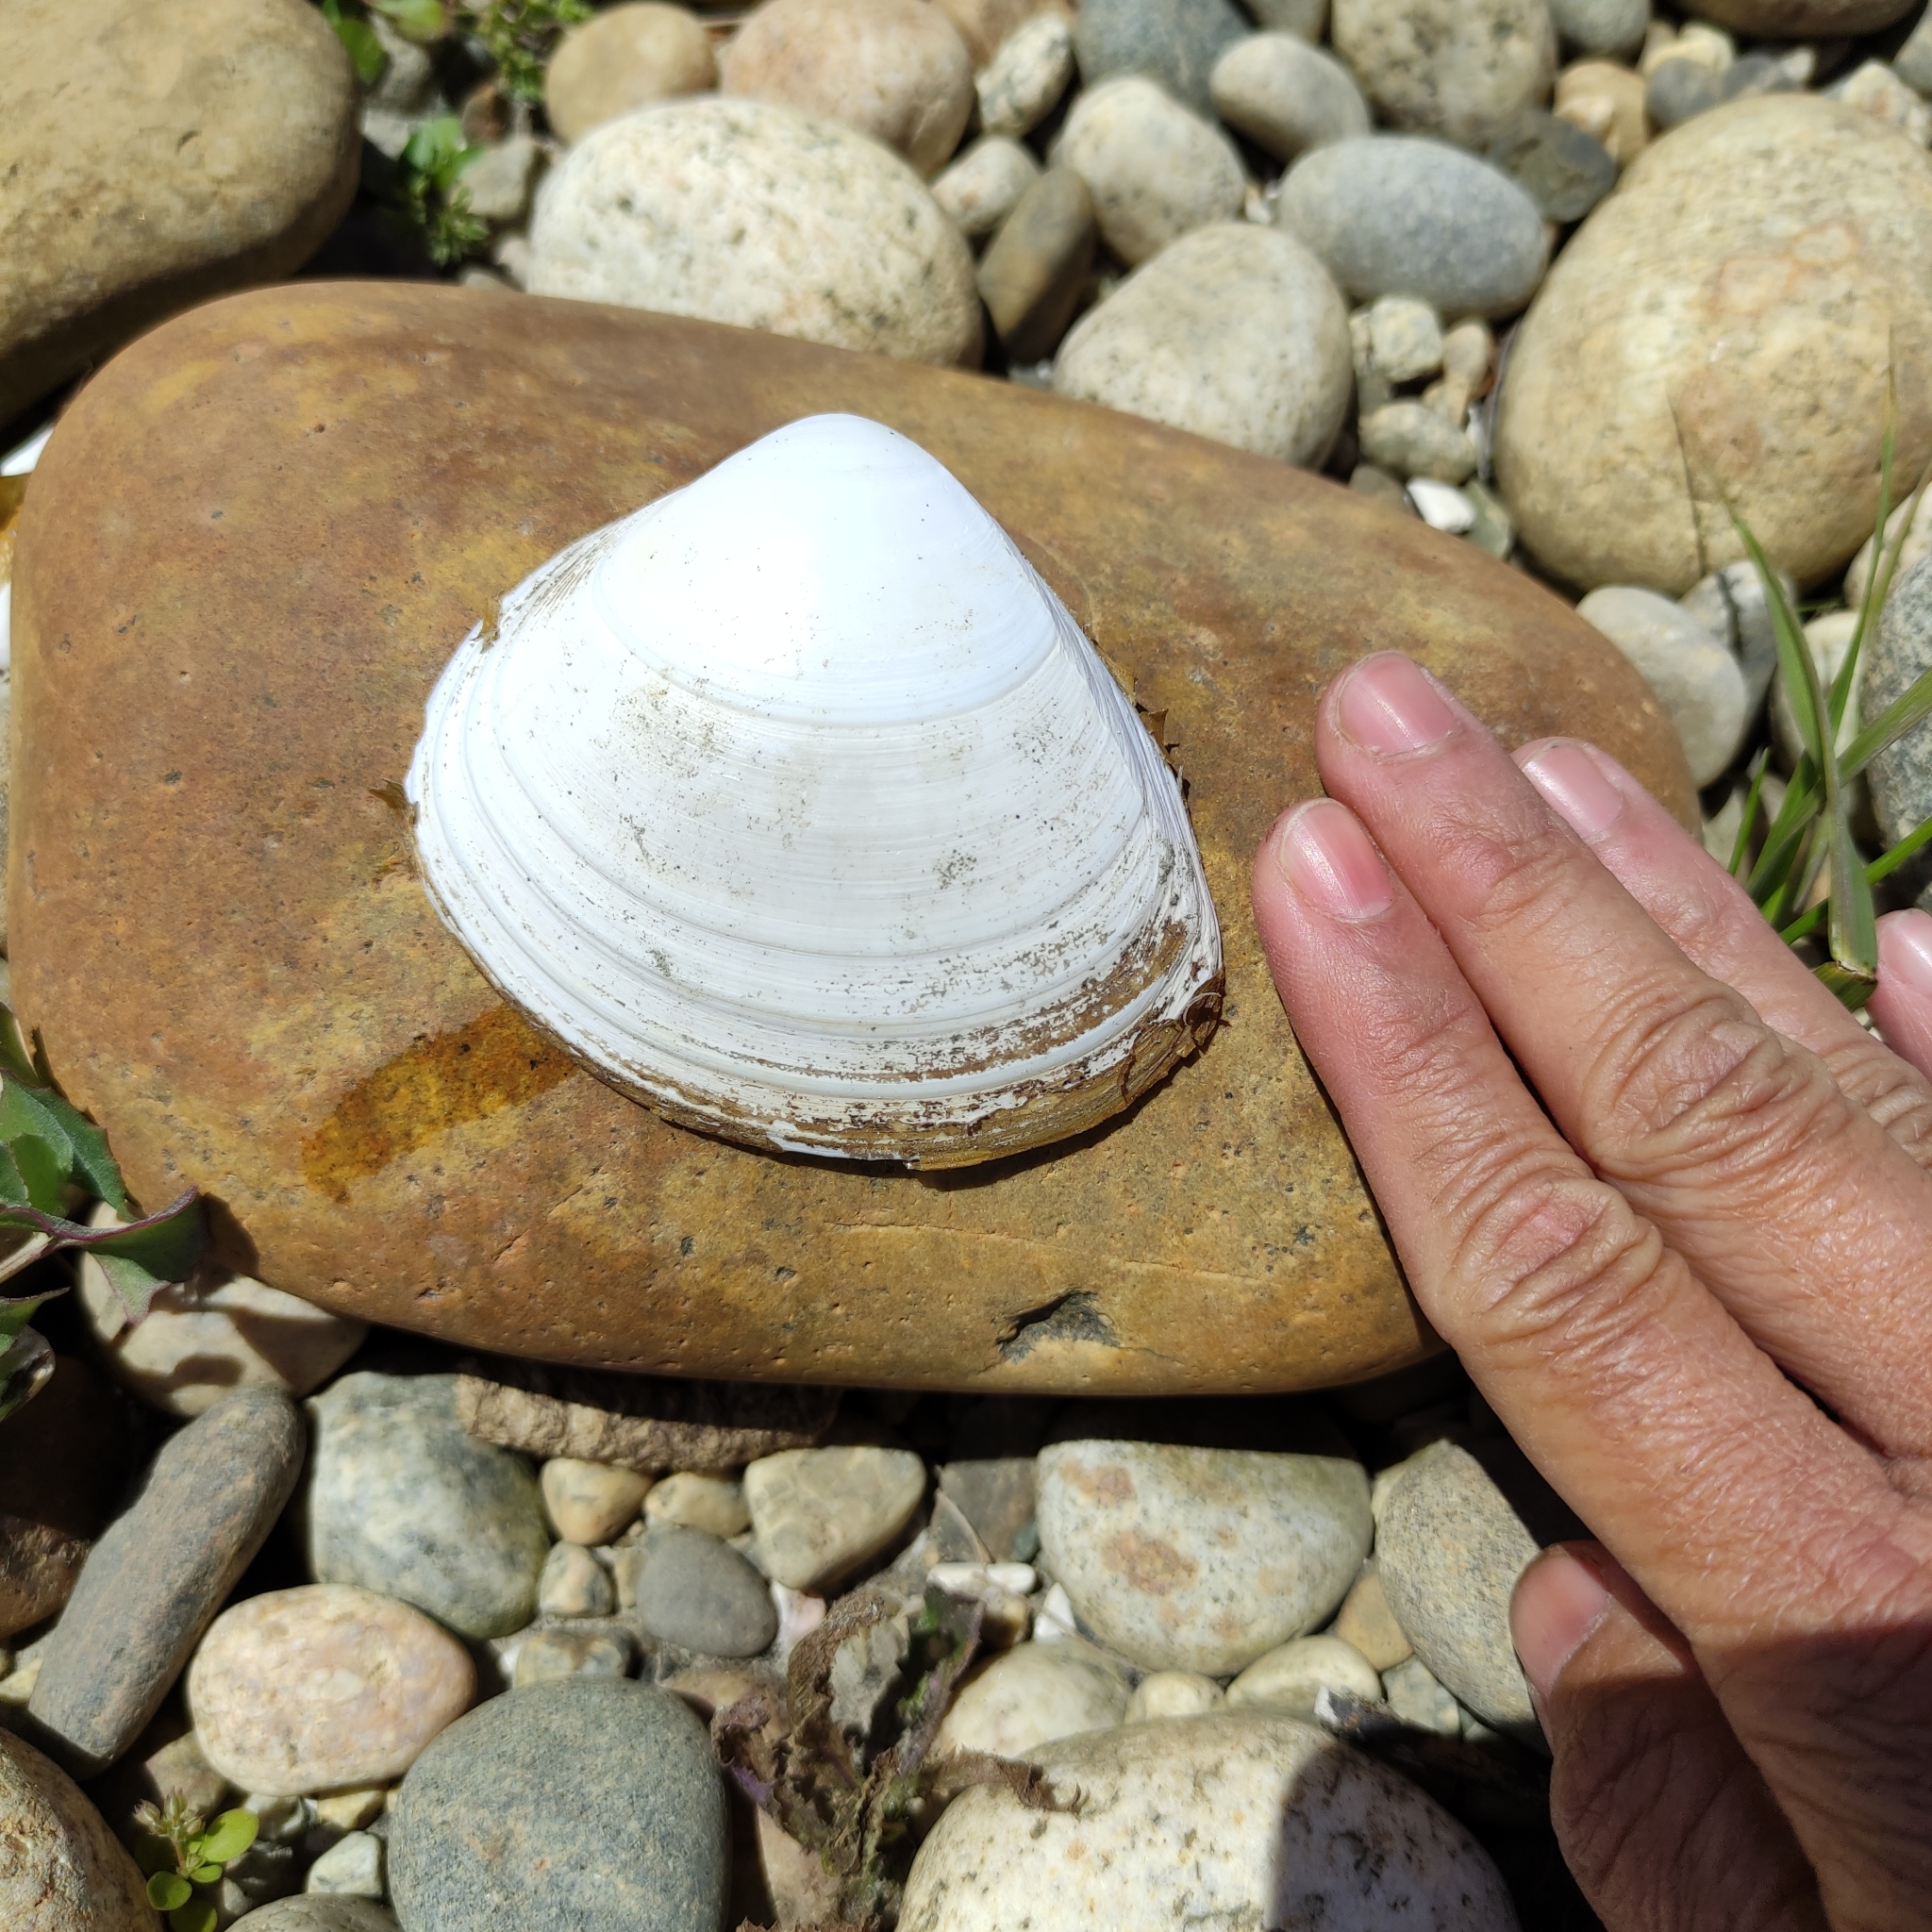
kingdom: Animalia
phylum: Mollusca
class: Bivalvia
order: Venerida
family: Mactridae
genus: Spisula
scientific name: Spisula murchisoni
